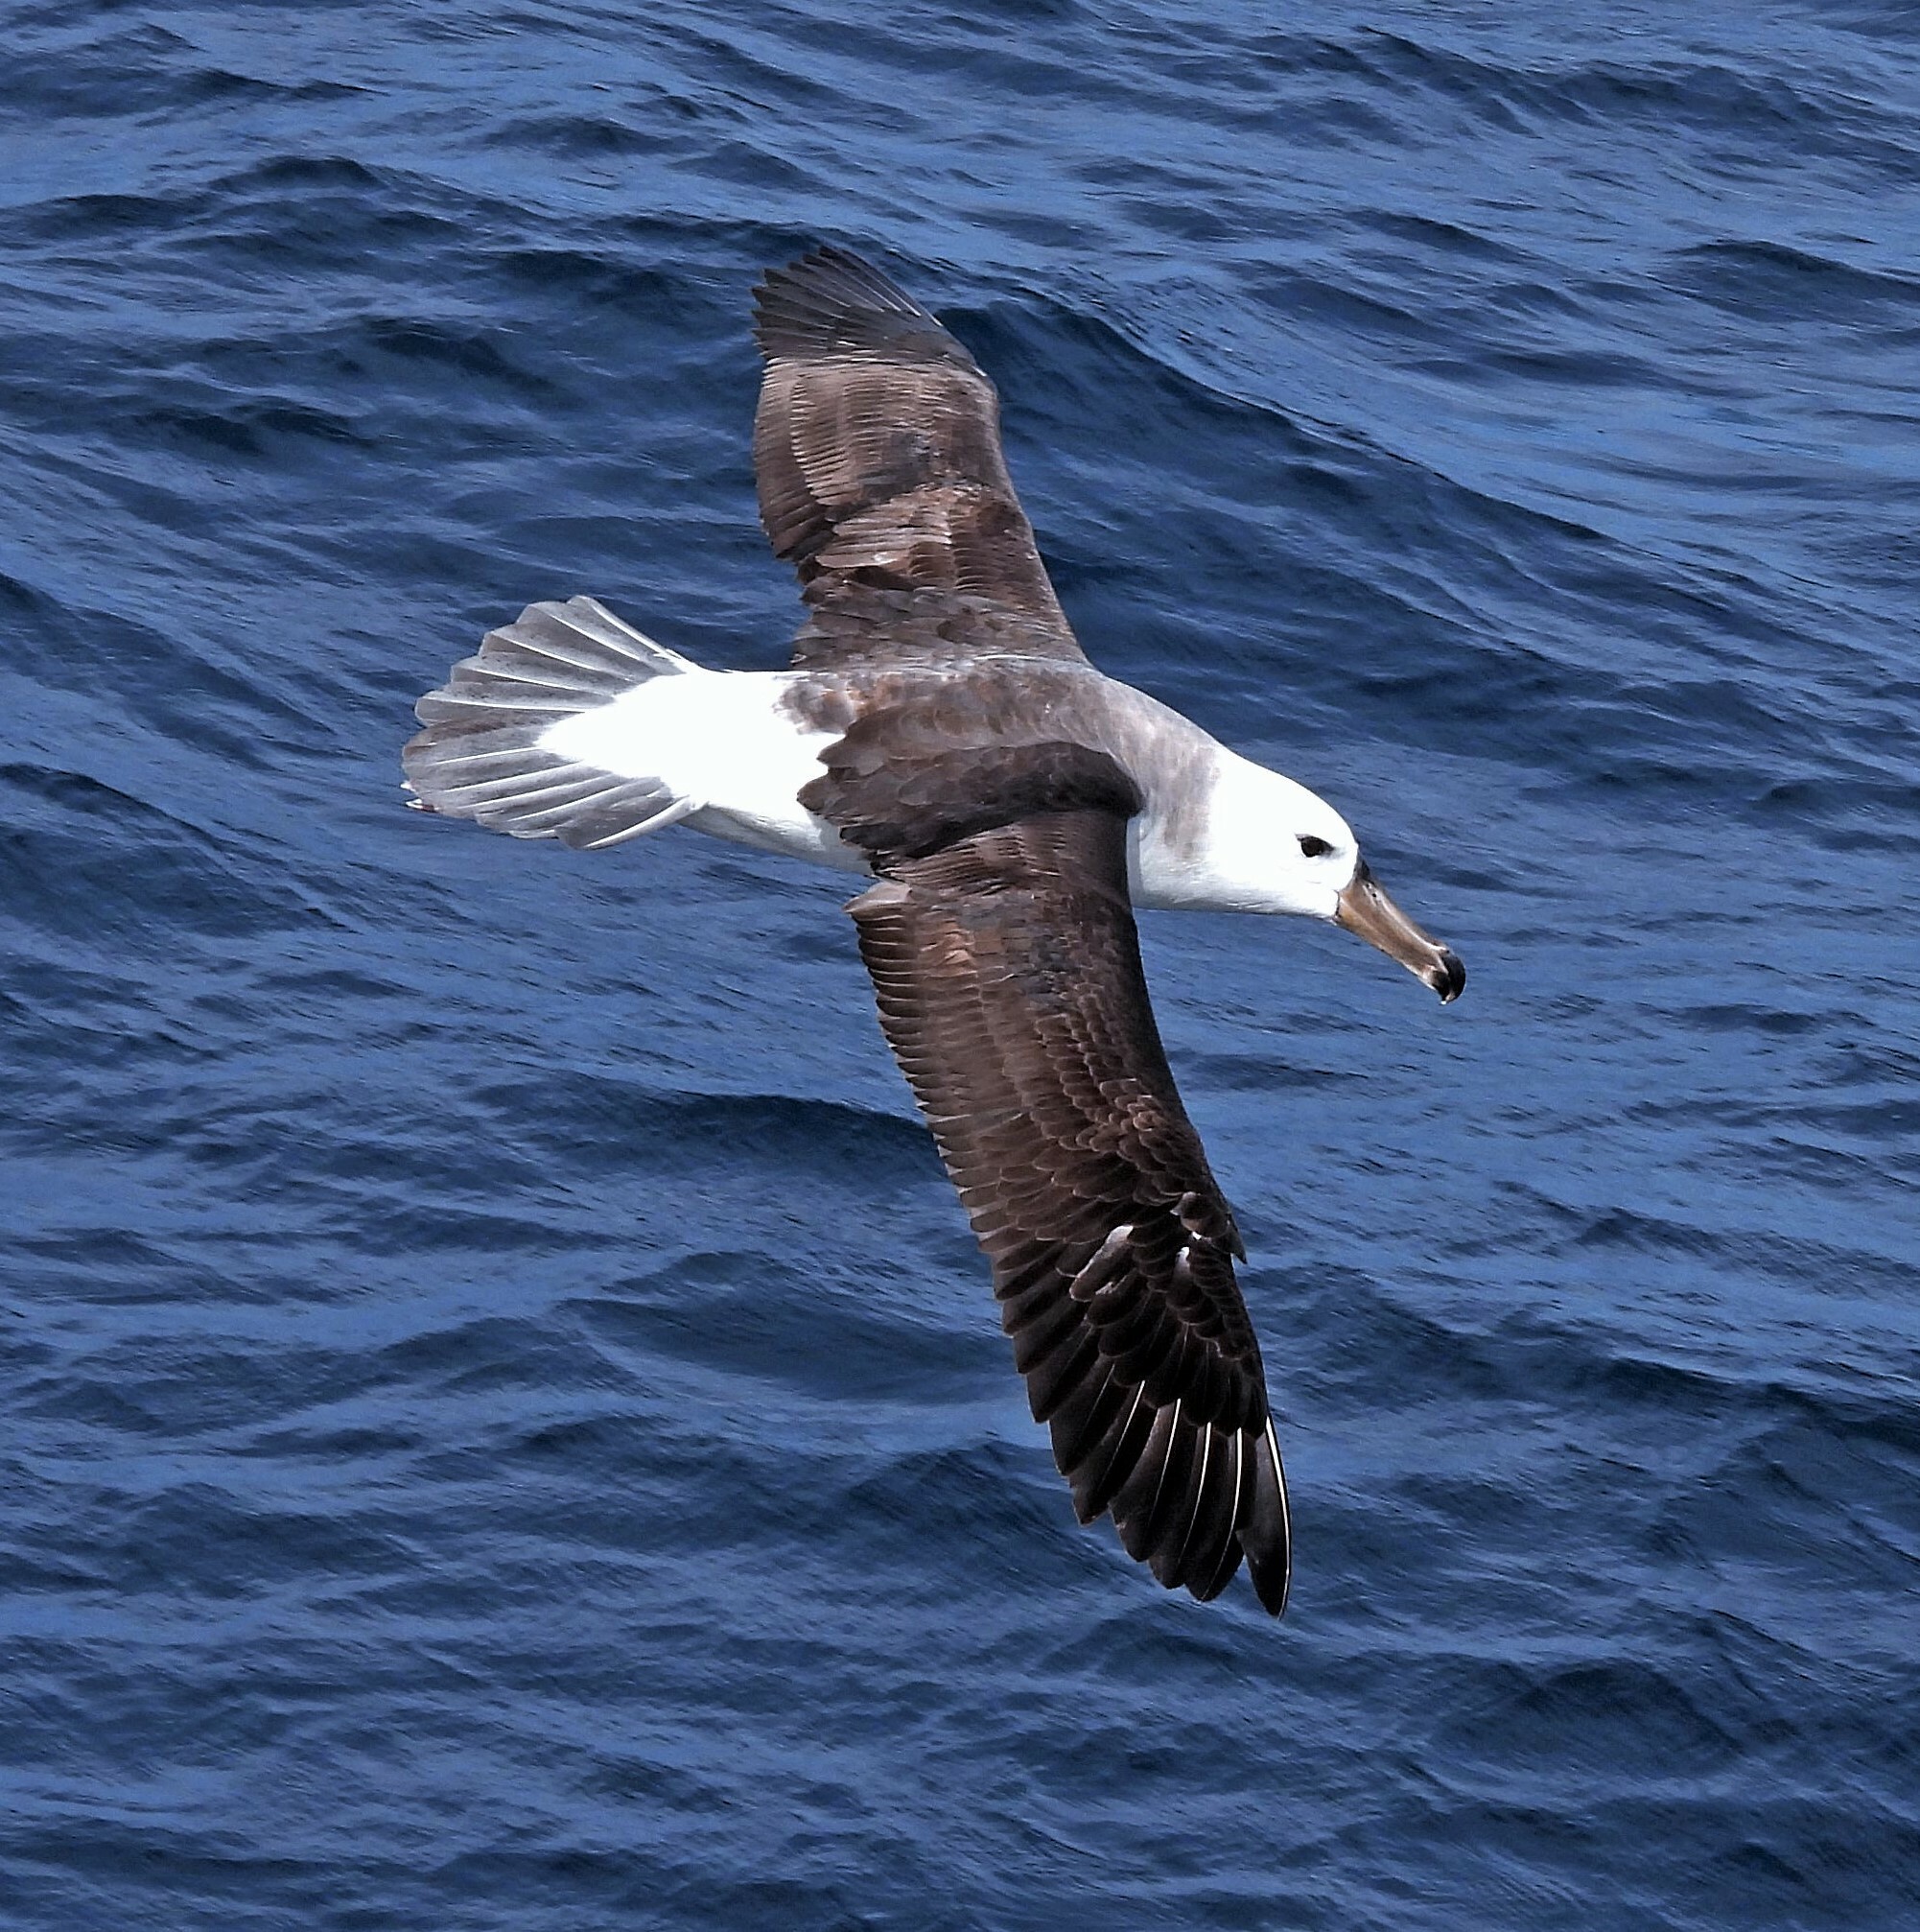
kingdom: Animalia
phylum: Chordata
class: Aves
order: Procellariiformes
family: Diomedeidae
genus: Thalassarche
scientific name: Thalassarche melanophris
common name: Black-browed albatross
